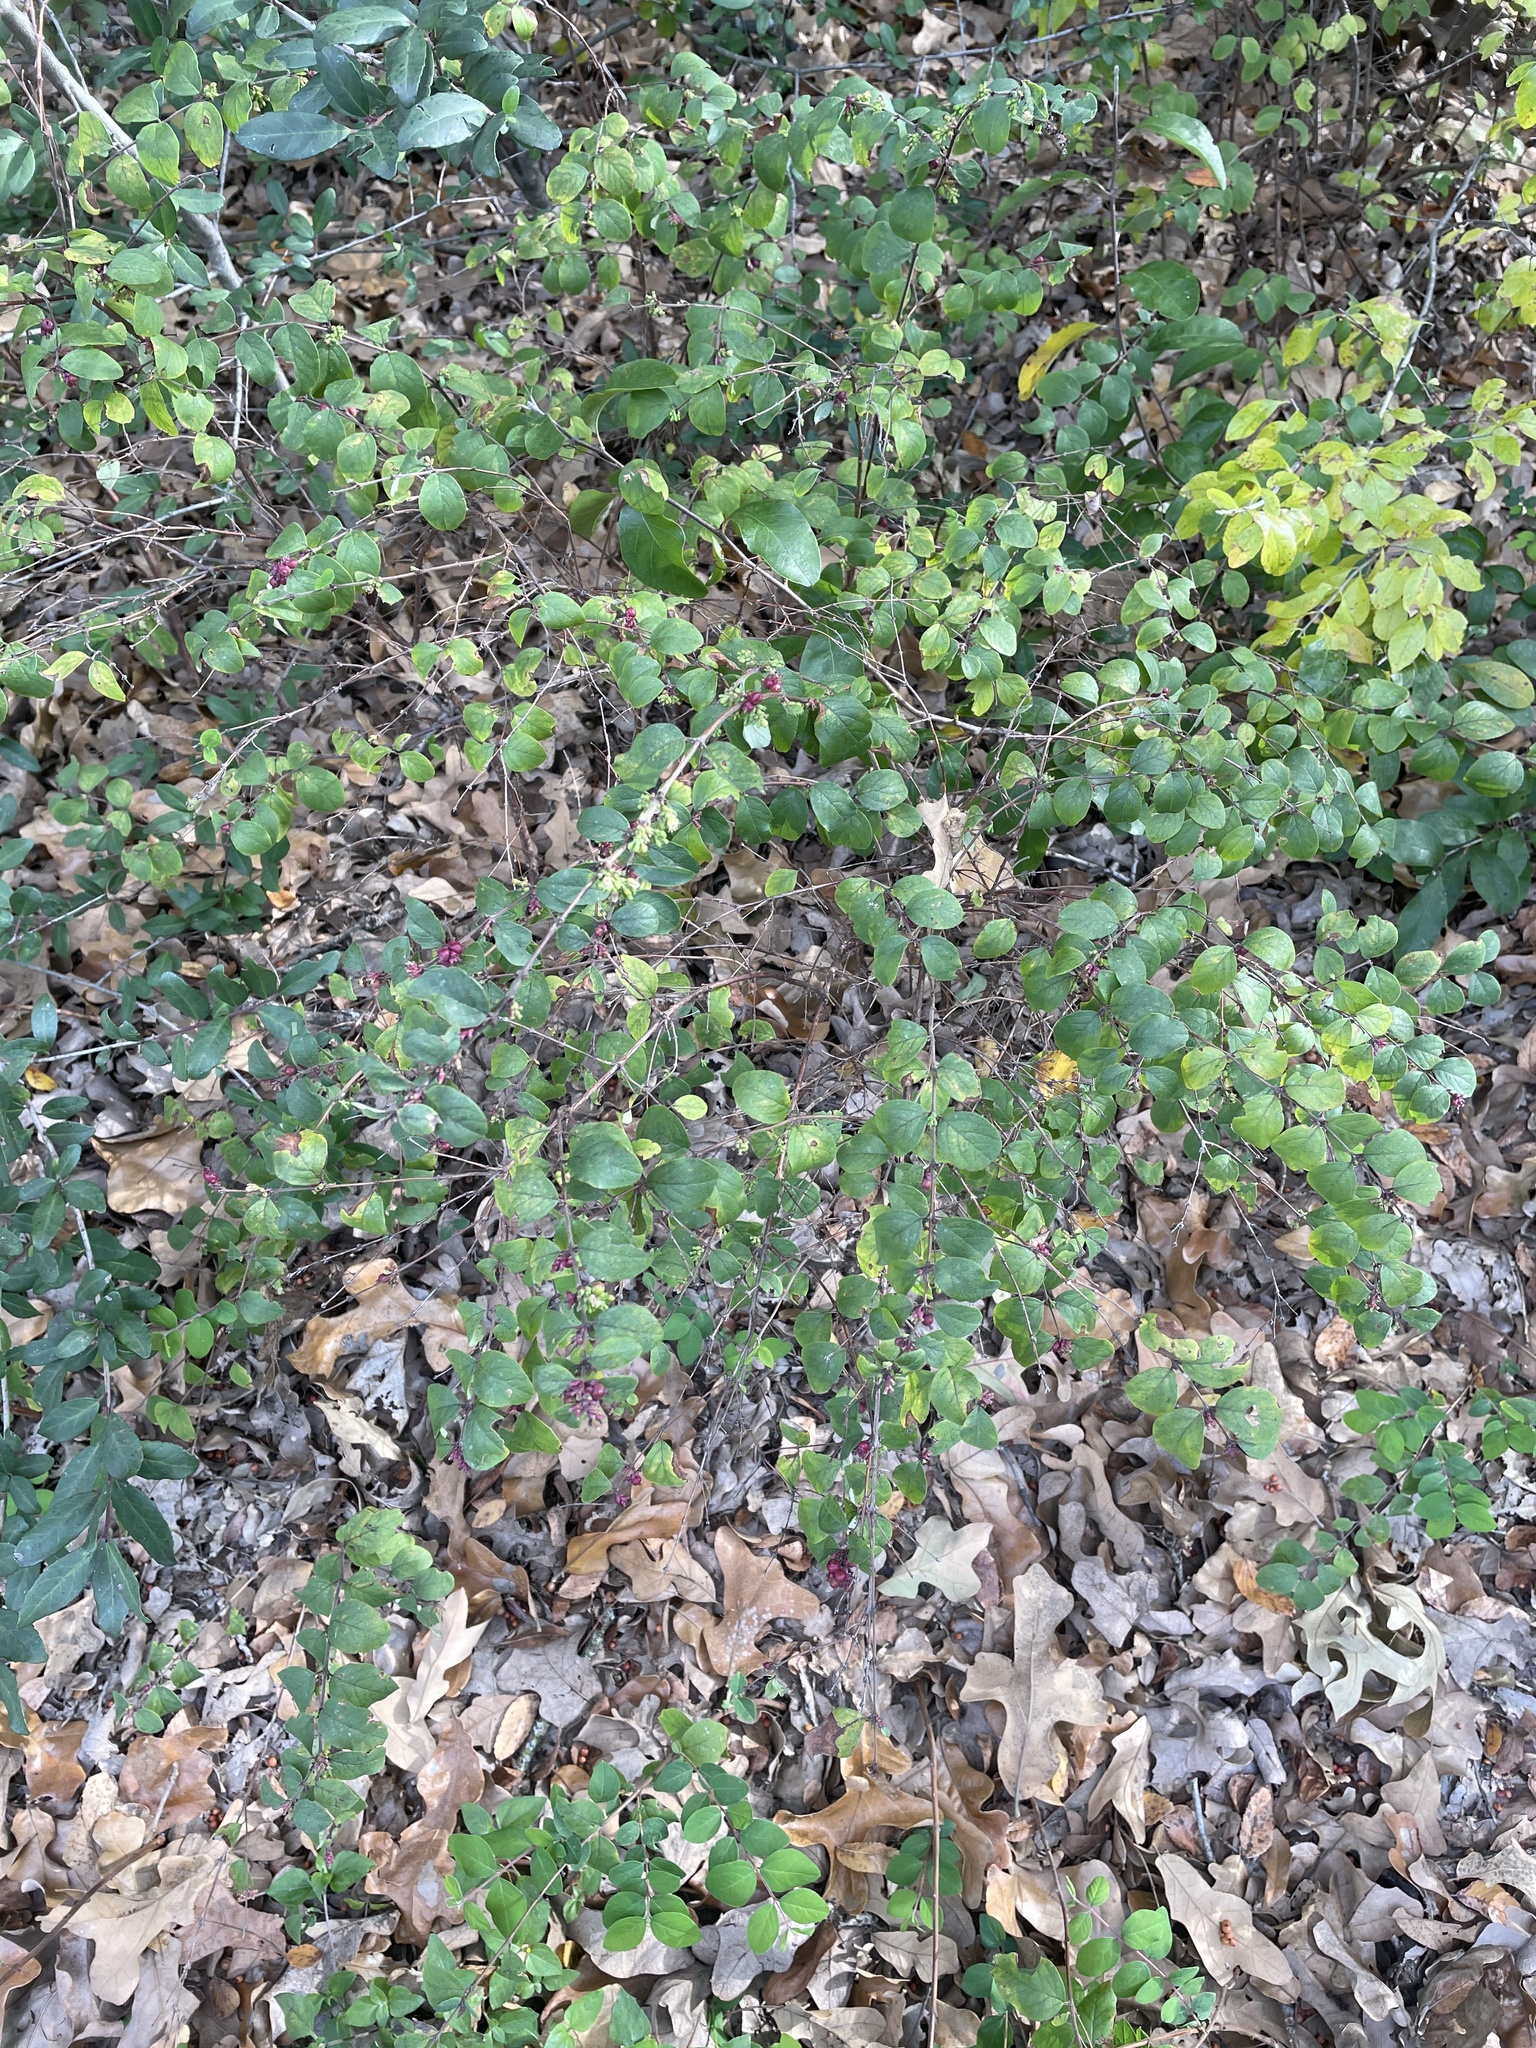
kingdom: Plantae
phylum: Tracheophyta
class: Magnoliopsida
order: Dipsacales
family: Caprifoliaceae
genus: Symphoricarpos
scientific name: Symphoricarpos orbiculatus
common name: Coralberry
